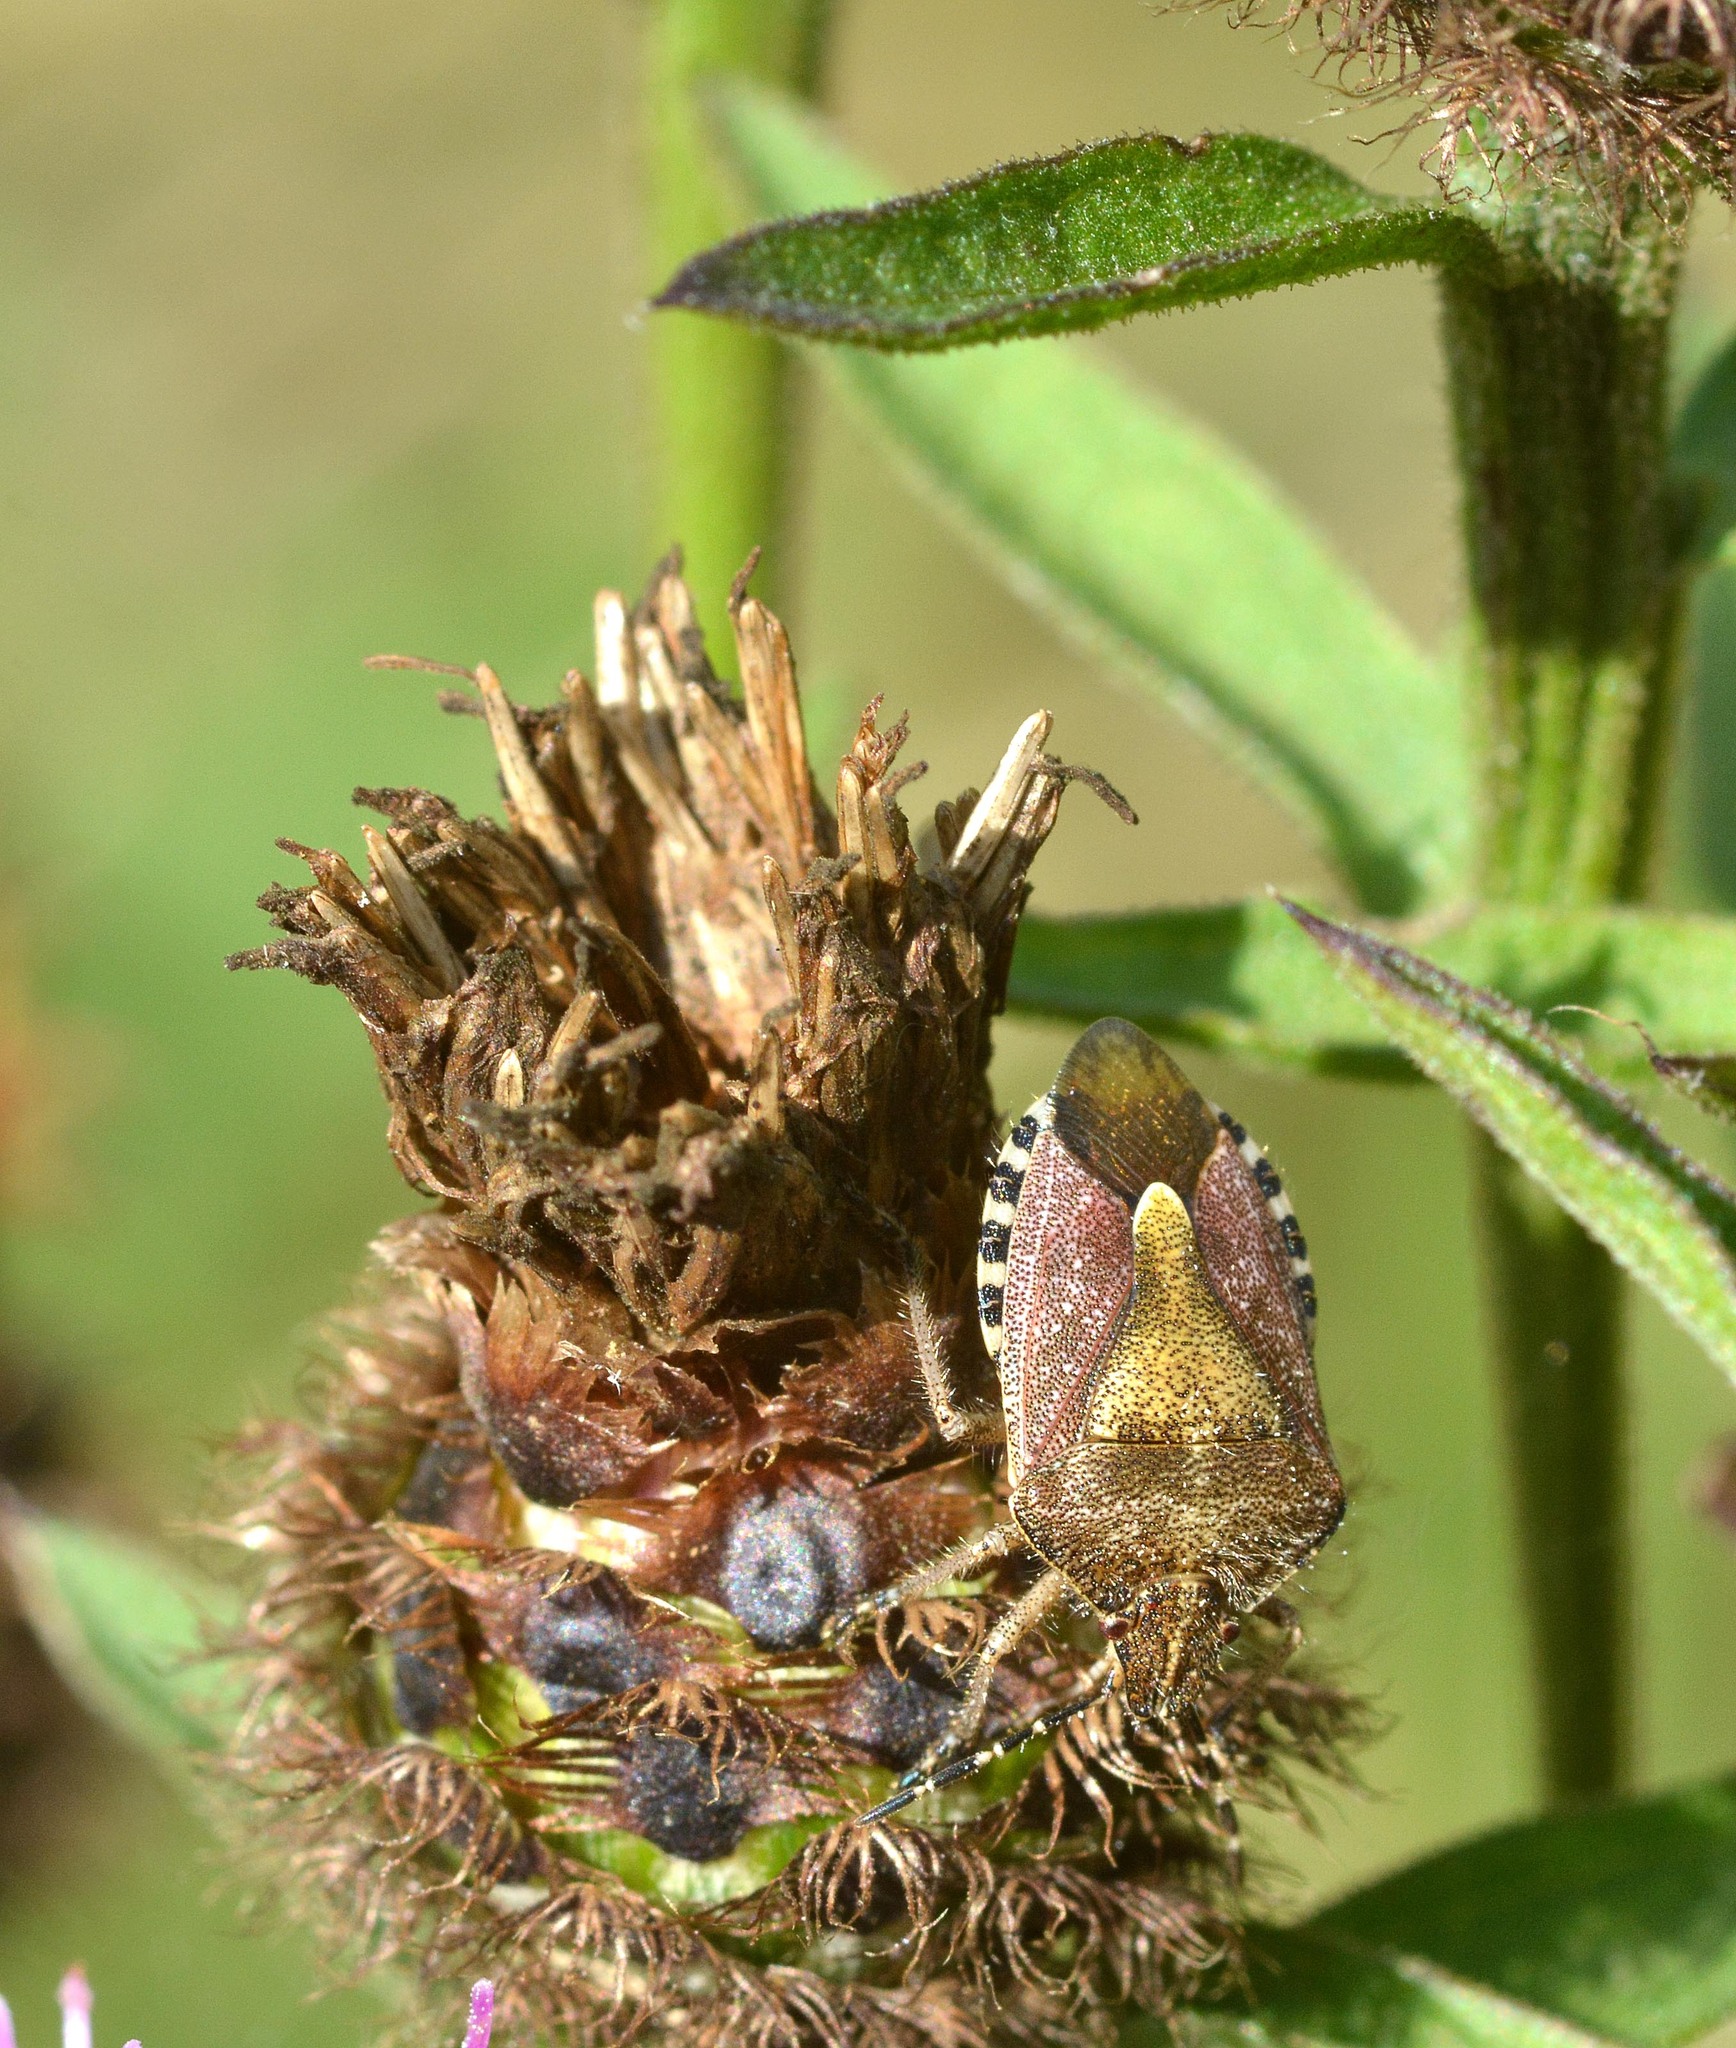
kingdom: Animalia
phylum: Arthropoda
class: Insecta
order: Hemiptera
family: Pentatomidae
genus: Dolycoris
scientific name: Dolycoris baccarum
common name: Sloe bug
